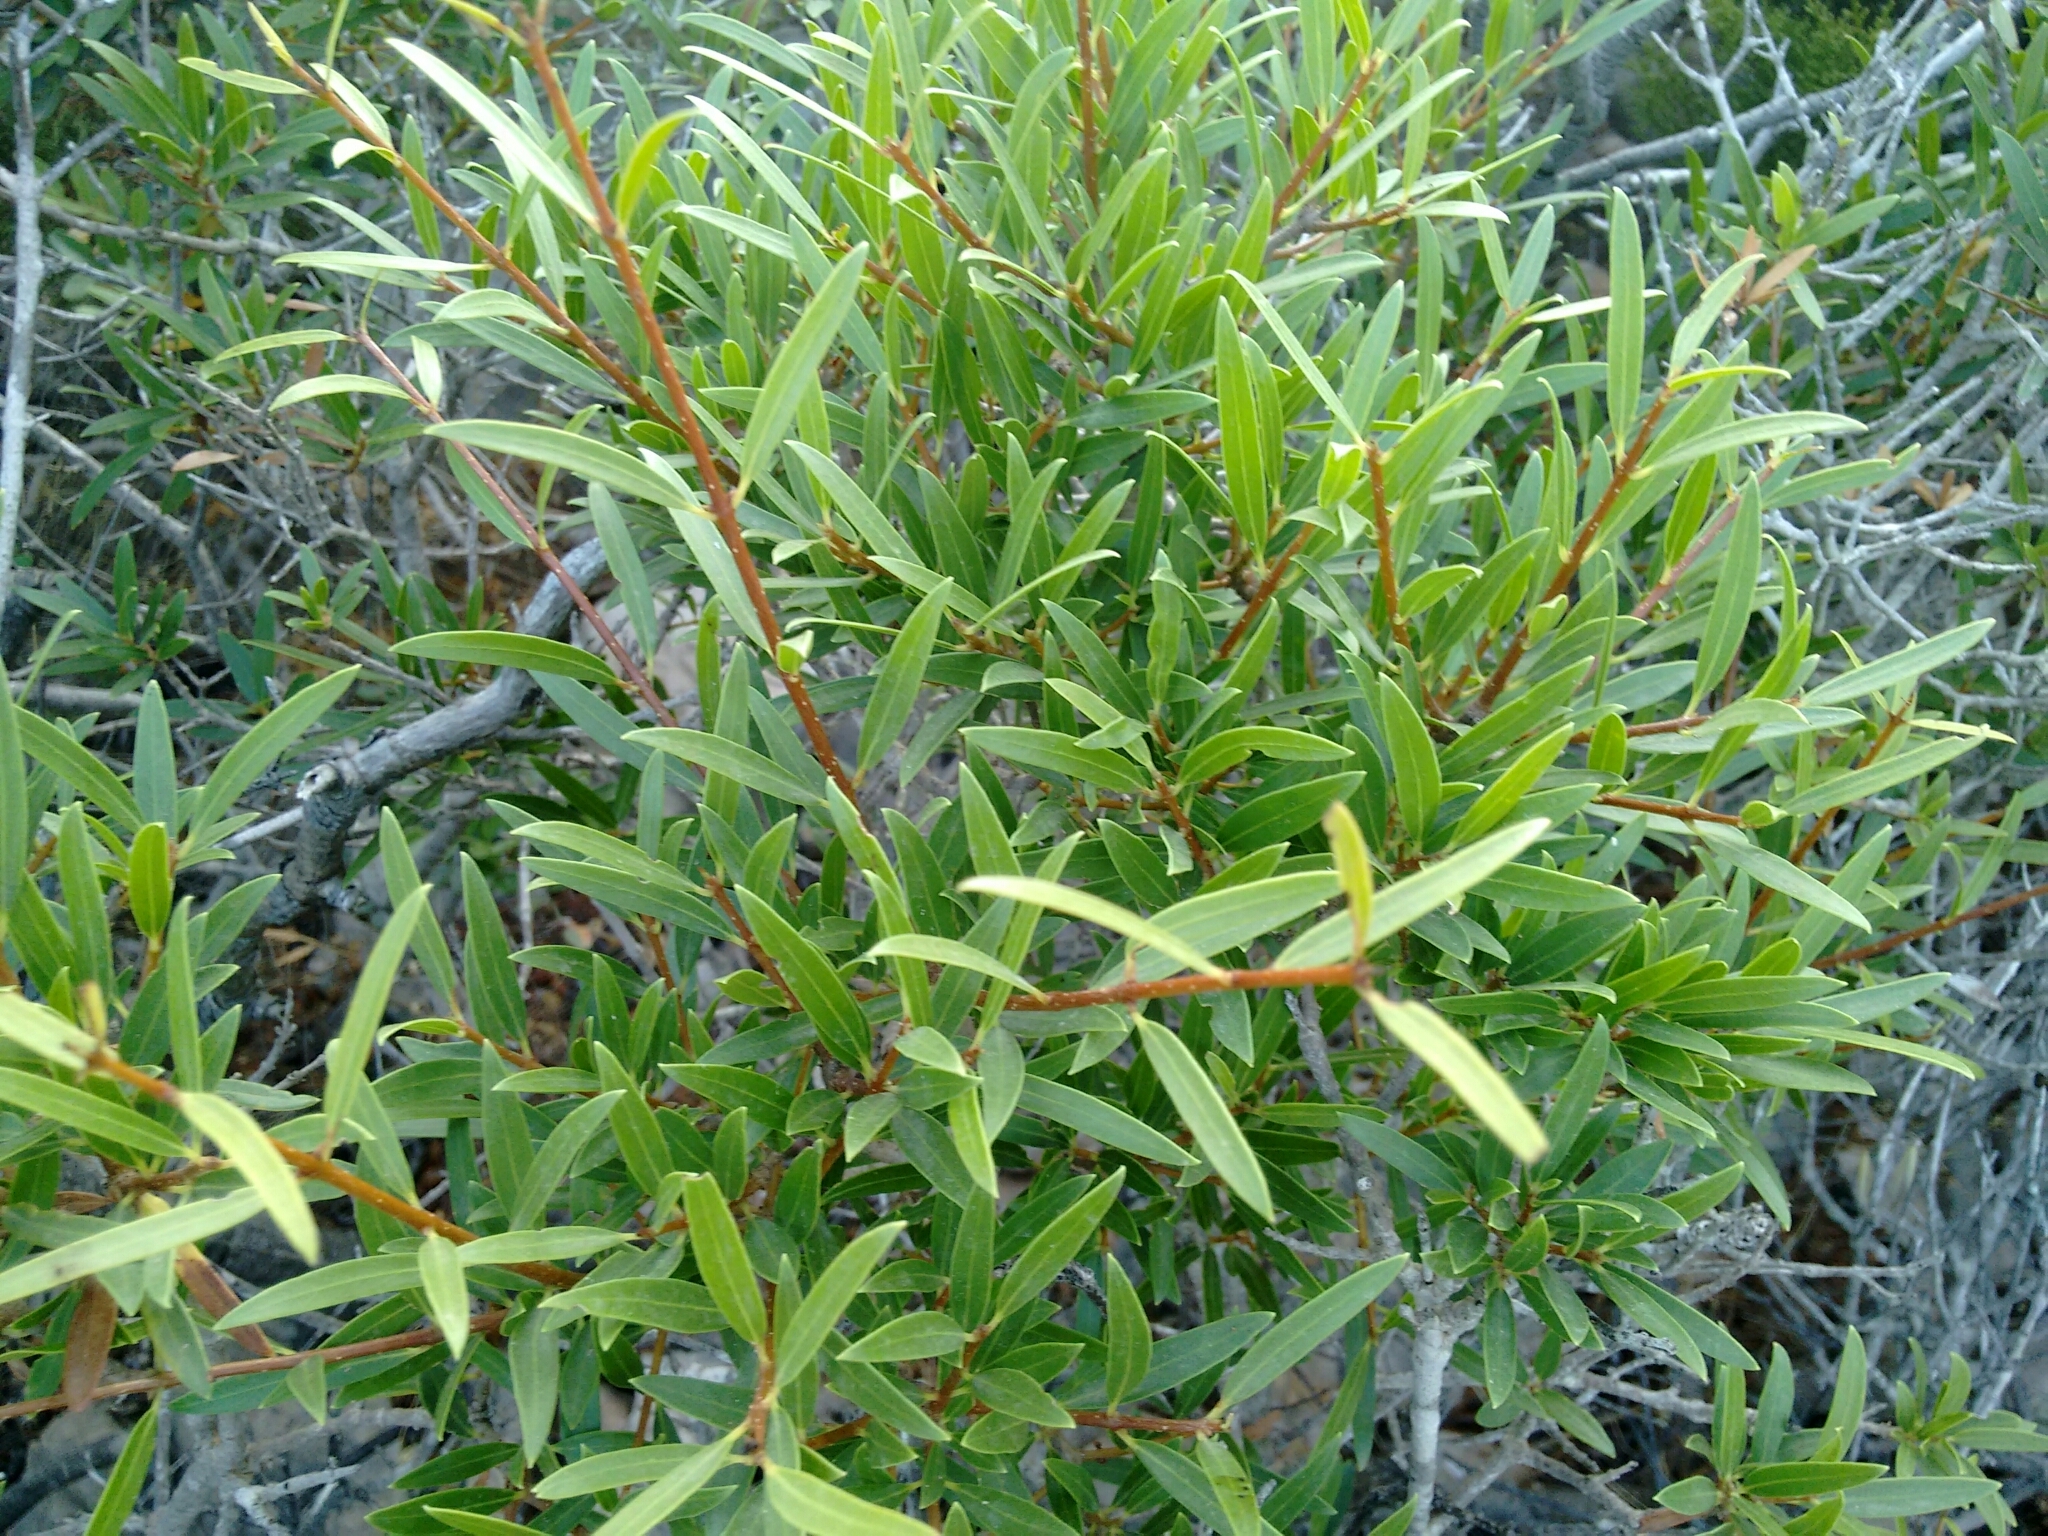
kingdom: Plantae
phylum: Tracheophyta
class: Magnoliopsida
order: Lamiales
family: Oleaceae
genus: Phillyrea
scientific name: Phillyrea angustifolia
